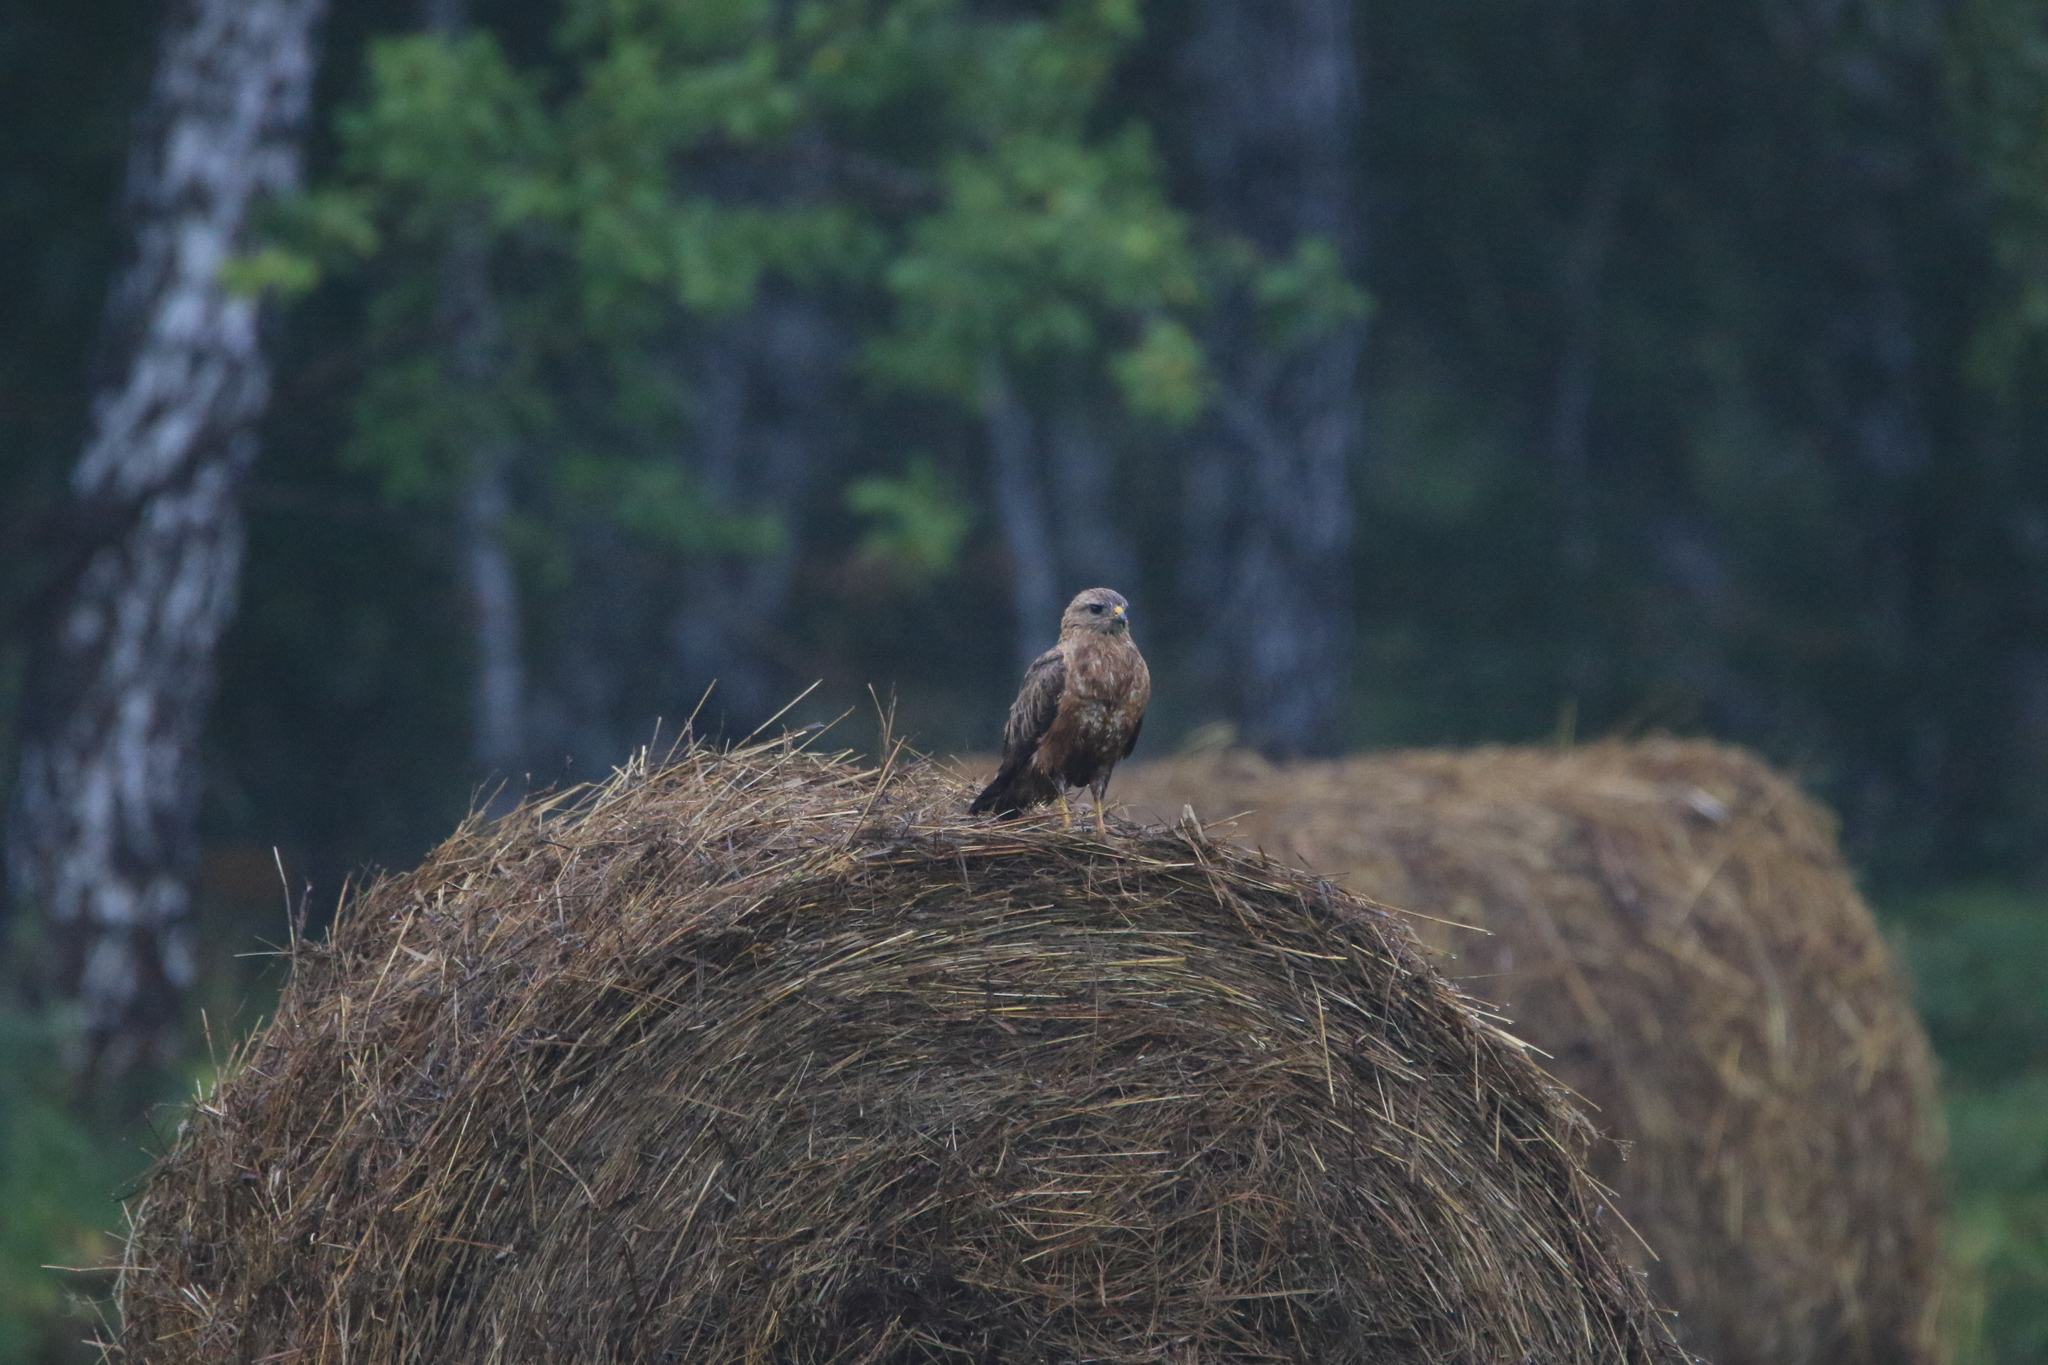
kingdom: Animalia
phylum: Chordata
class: Aves
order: Accipitriformes
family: Accipitridae
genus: Buteo
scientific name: Buteo buteo
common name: Common buzzard
